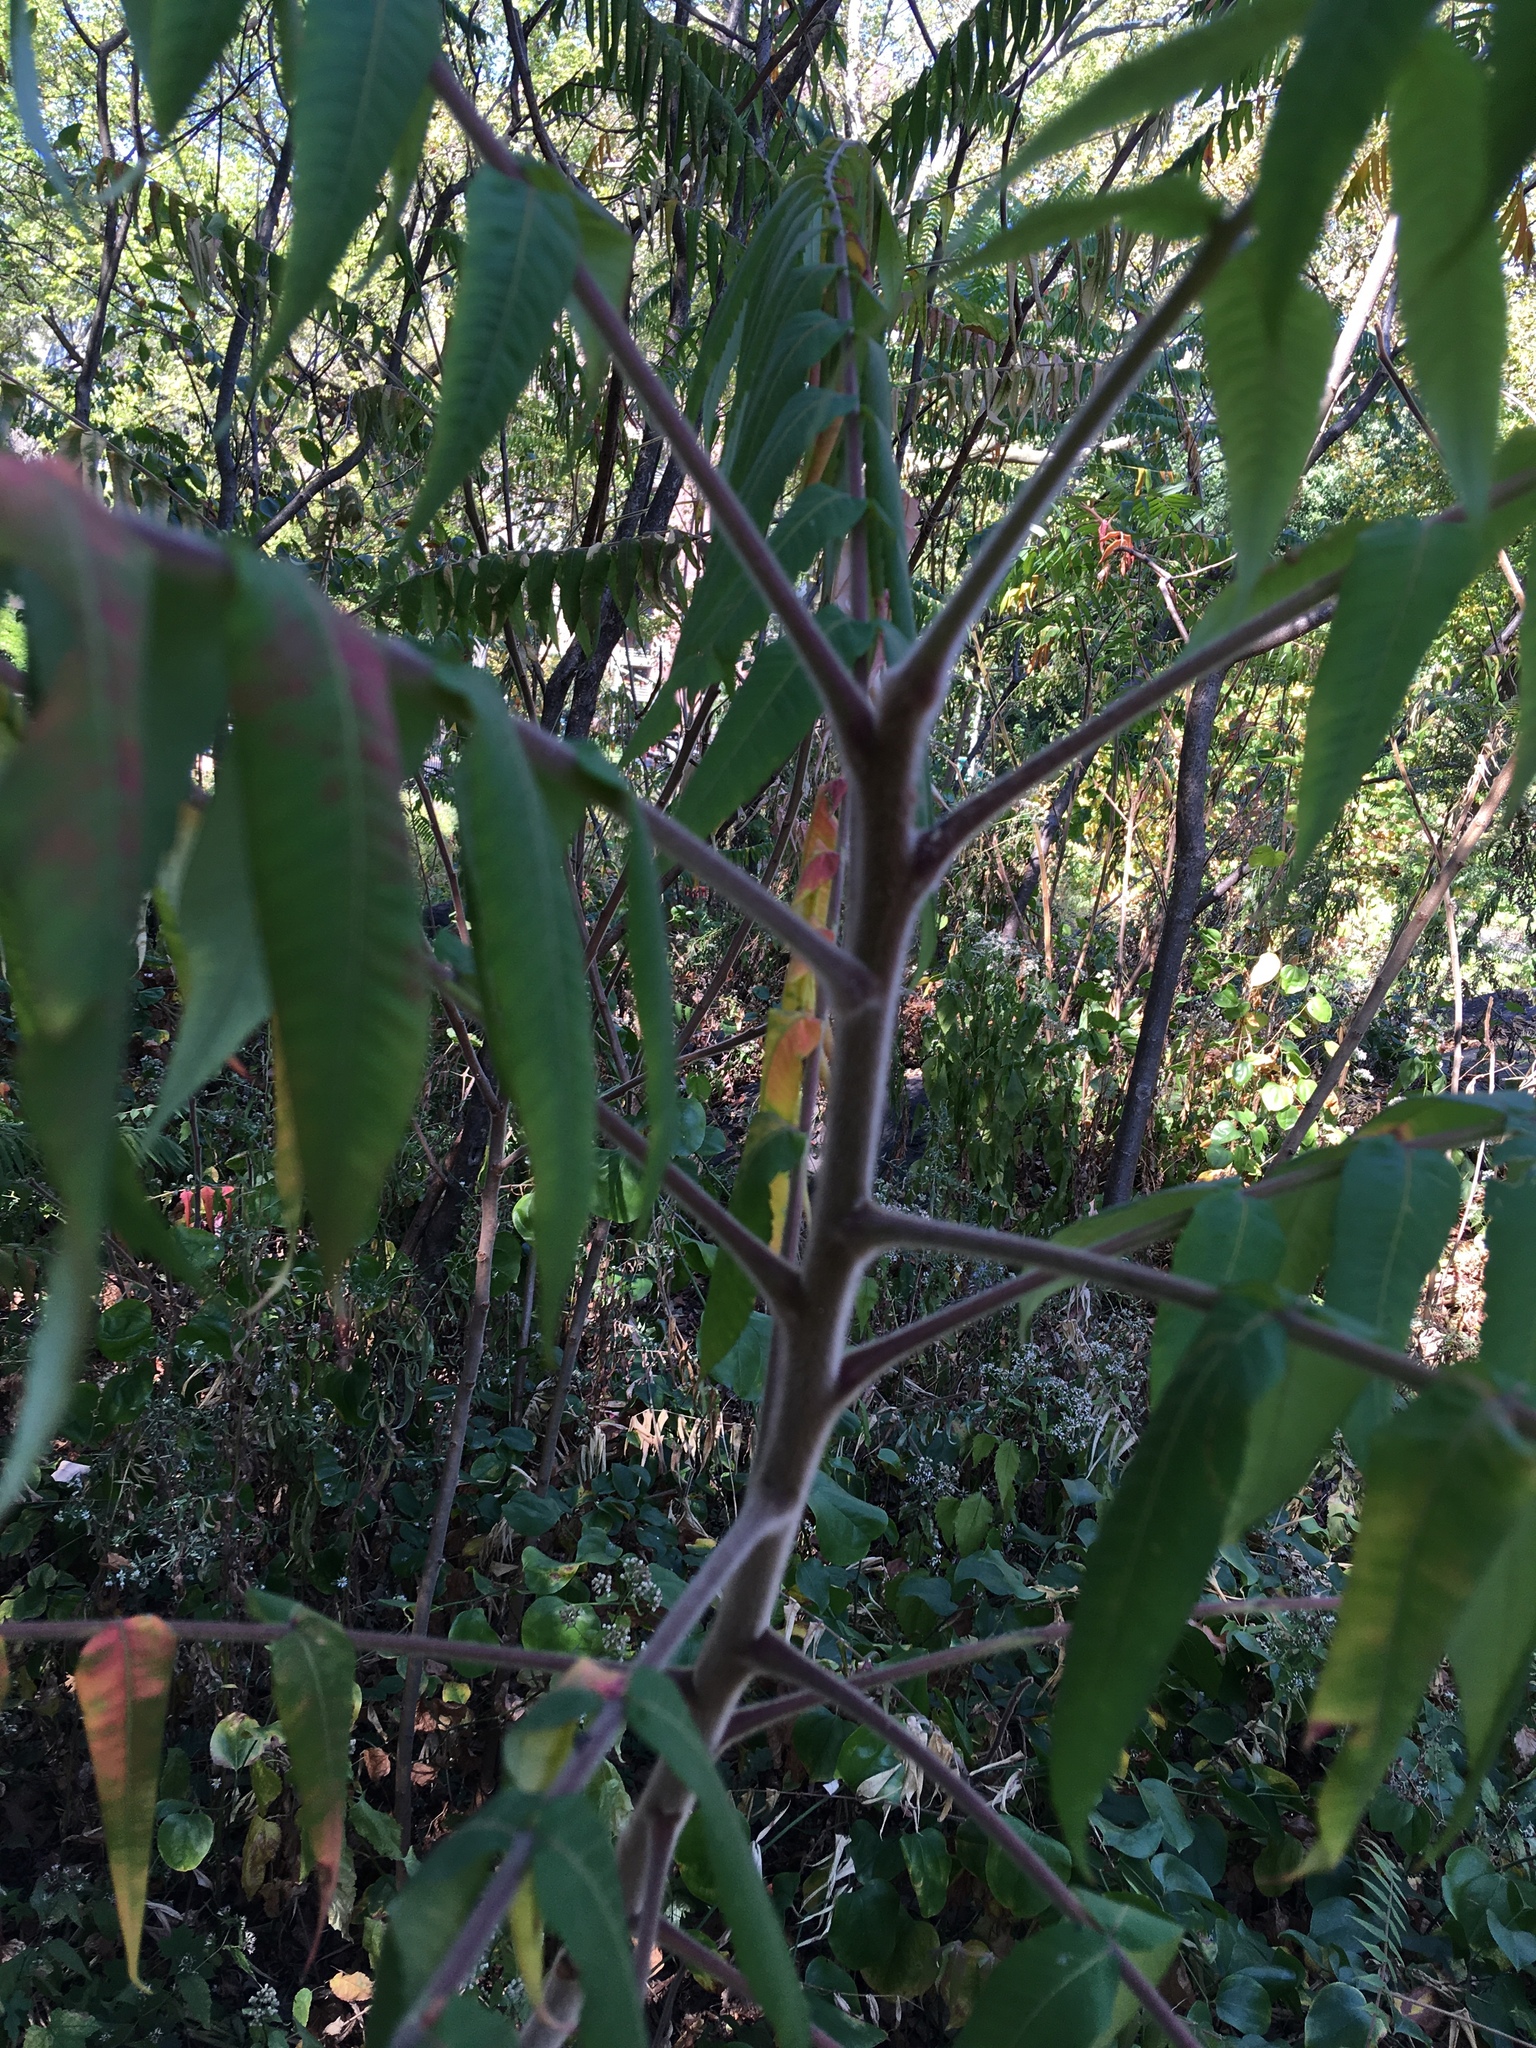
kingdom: Plantae
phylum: Tracheophyta
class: Magnoliopsida
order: Sapindales
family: Anacardiaceae
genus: Rhus
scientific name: Rhus typhina
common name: Staghorn sumac
